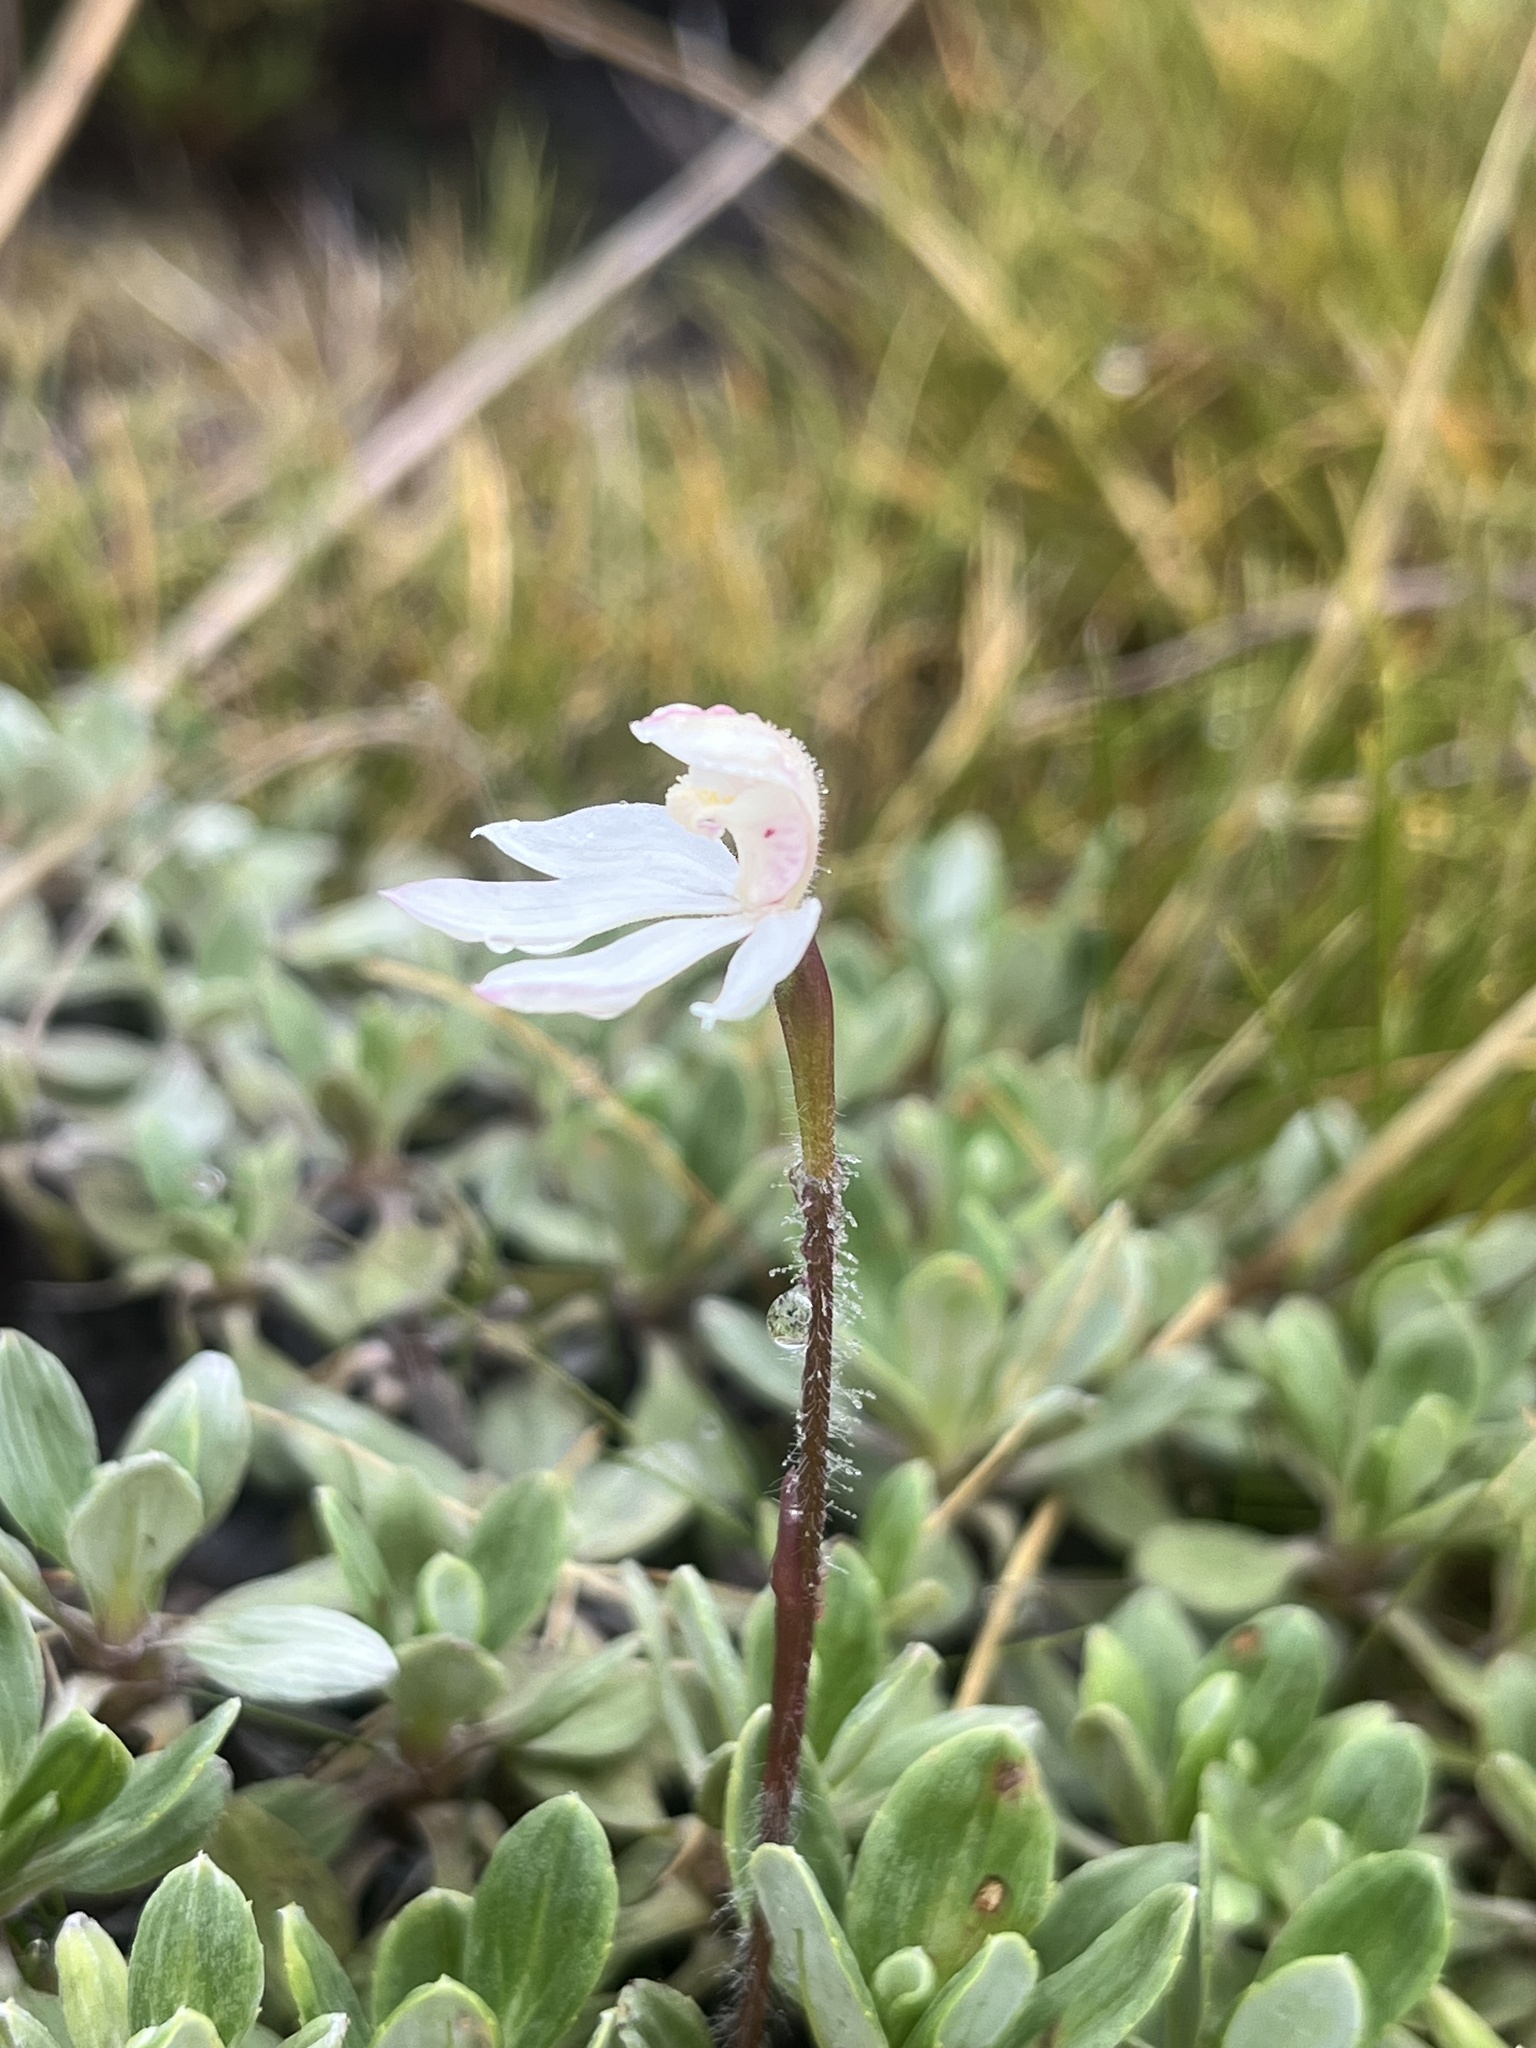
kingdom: Plantae
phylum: Tracheophyta
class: Liliopsida
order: Asparagales
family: Orchidaceae
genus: Caladenia
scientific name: Caladenia lyallii
